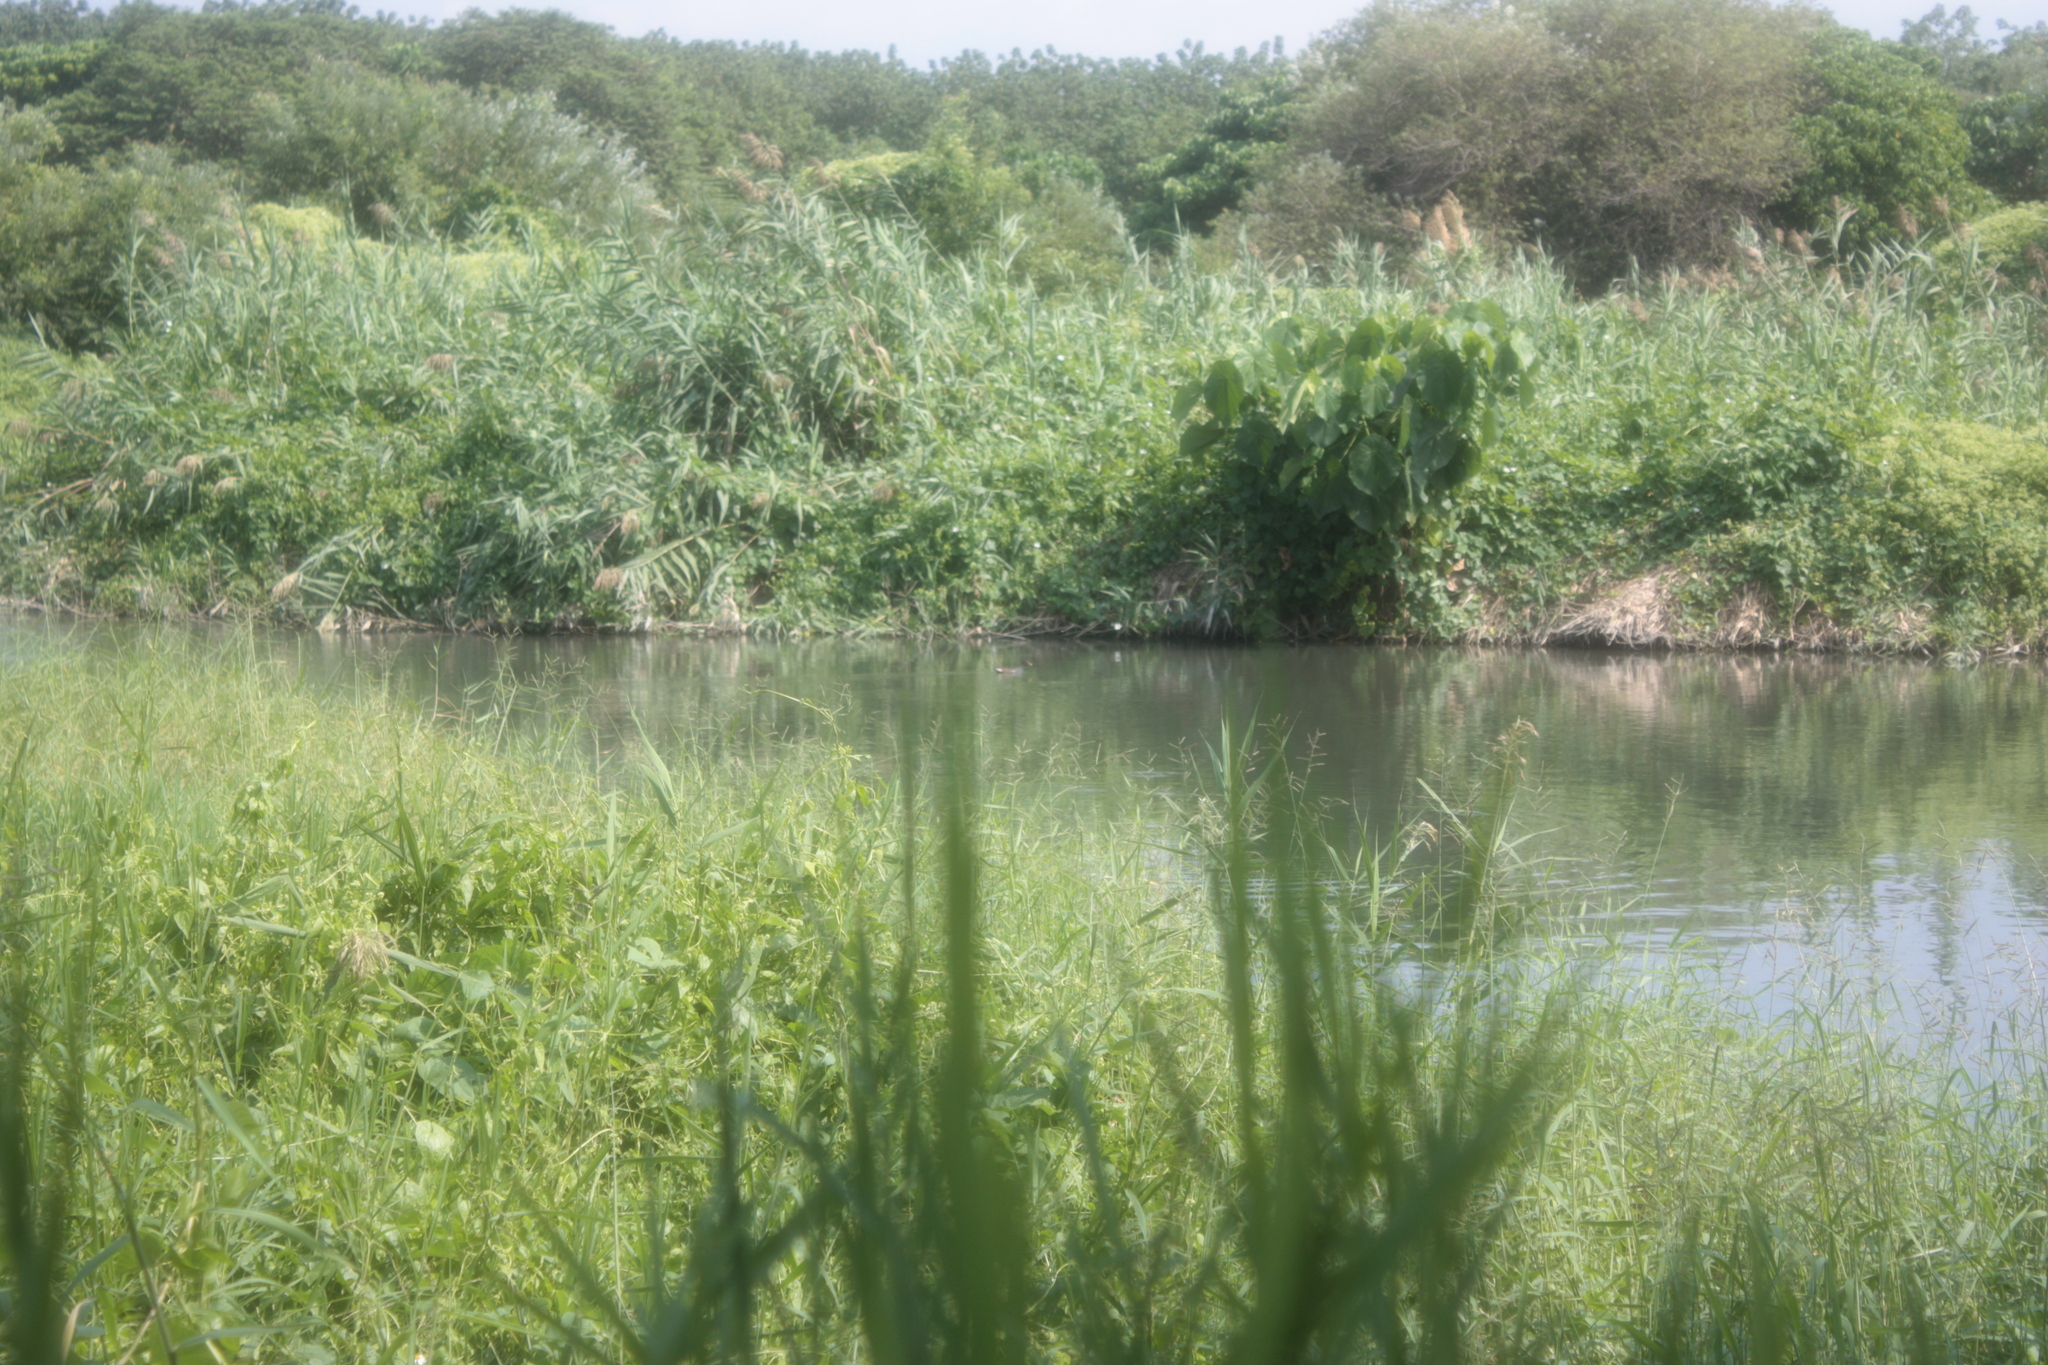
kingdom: Animalia
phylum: Chordata
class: Aves
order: Gruiformes
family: Rallidae
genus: Gallinula
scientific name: Gallinula chloropus
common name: Common moorhen
